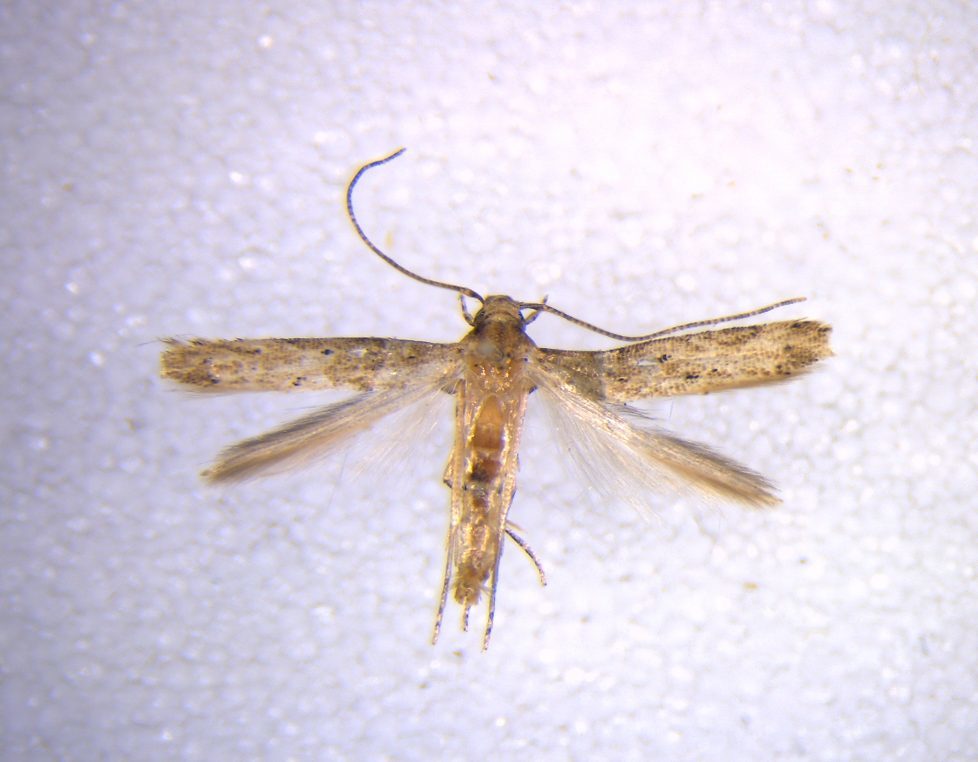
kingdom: Animalia
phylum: Arthropoda
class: Insecta
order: Lepidoptera
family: Elachistidae
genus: Microcolona
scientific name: Microcolona limodes
